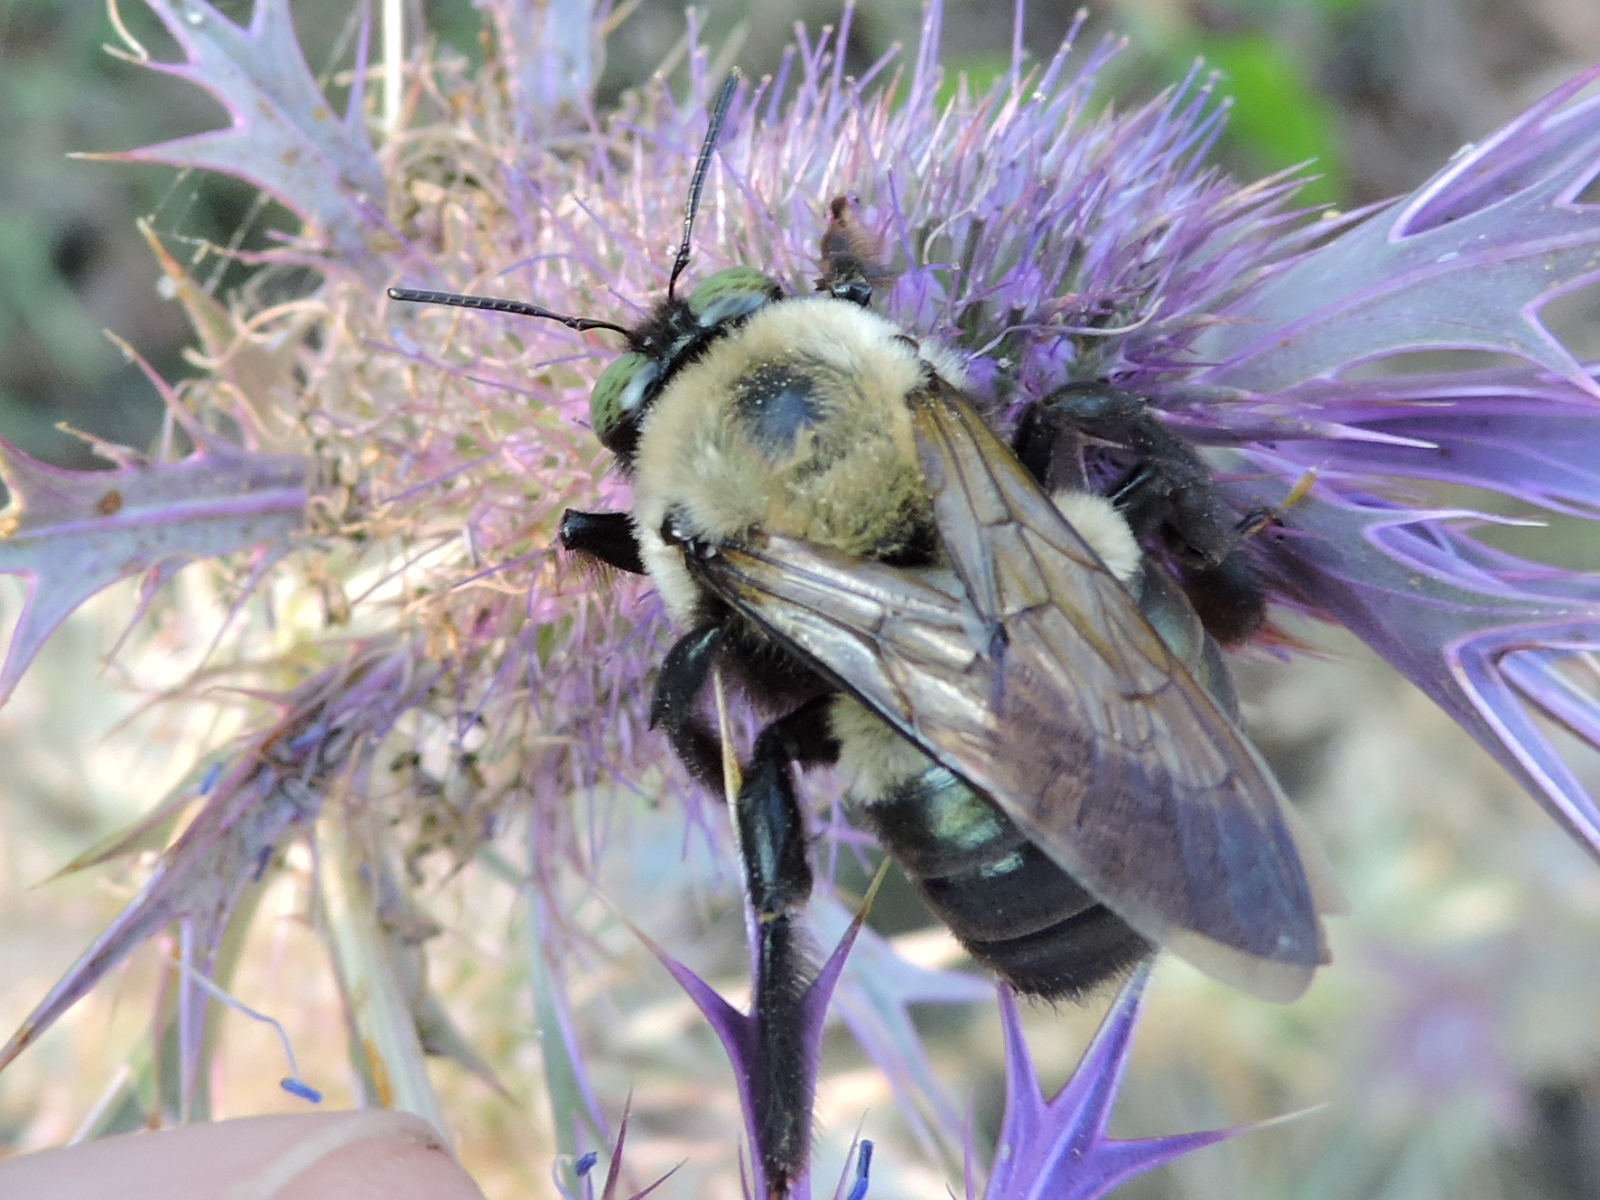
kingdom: Animalia
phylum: Arthropoda
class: Insecta
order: Hymenoptera
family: Apidae
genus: Xylocopa
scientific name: Xylocopa virginica
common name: Carpenter bee
